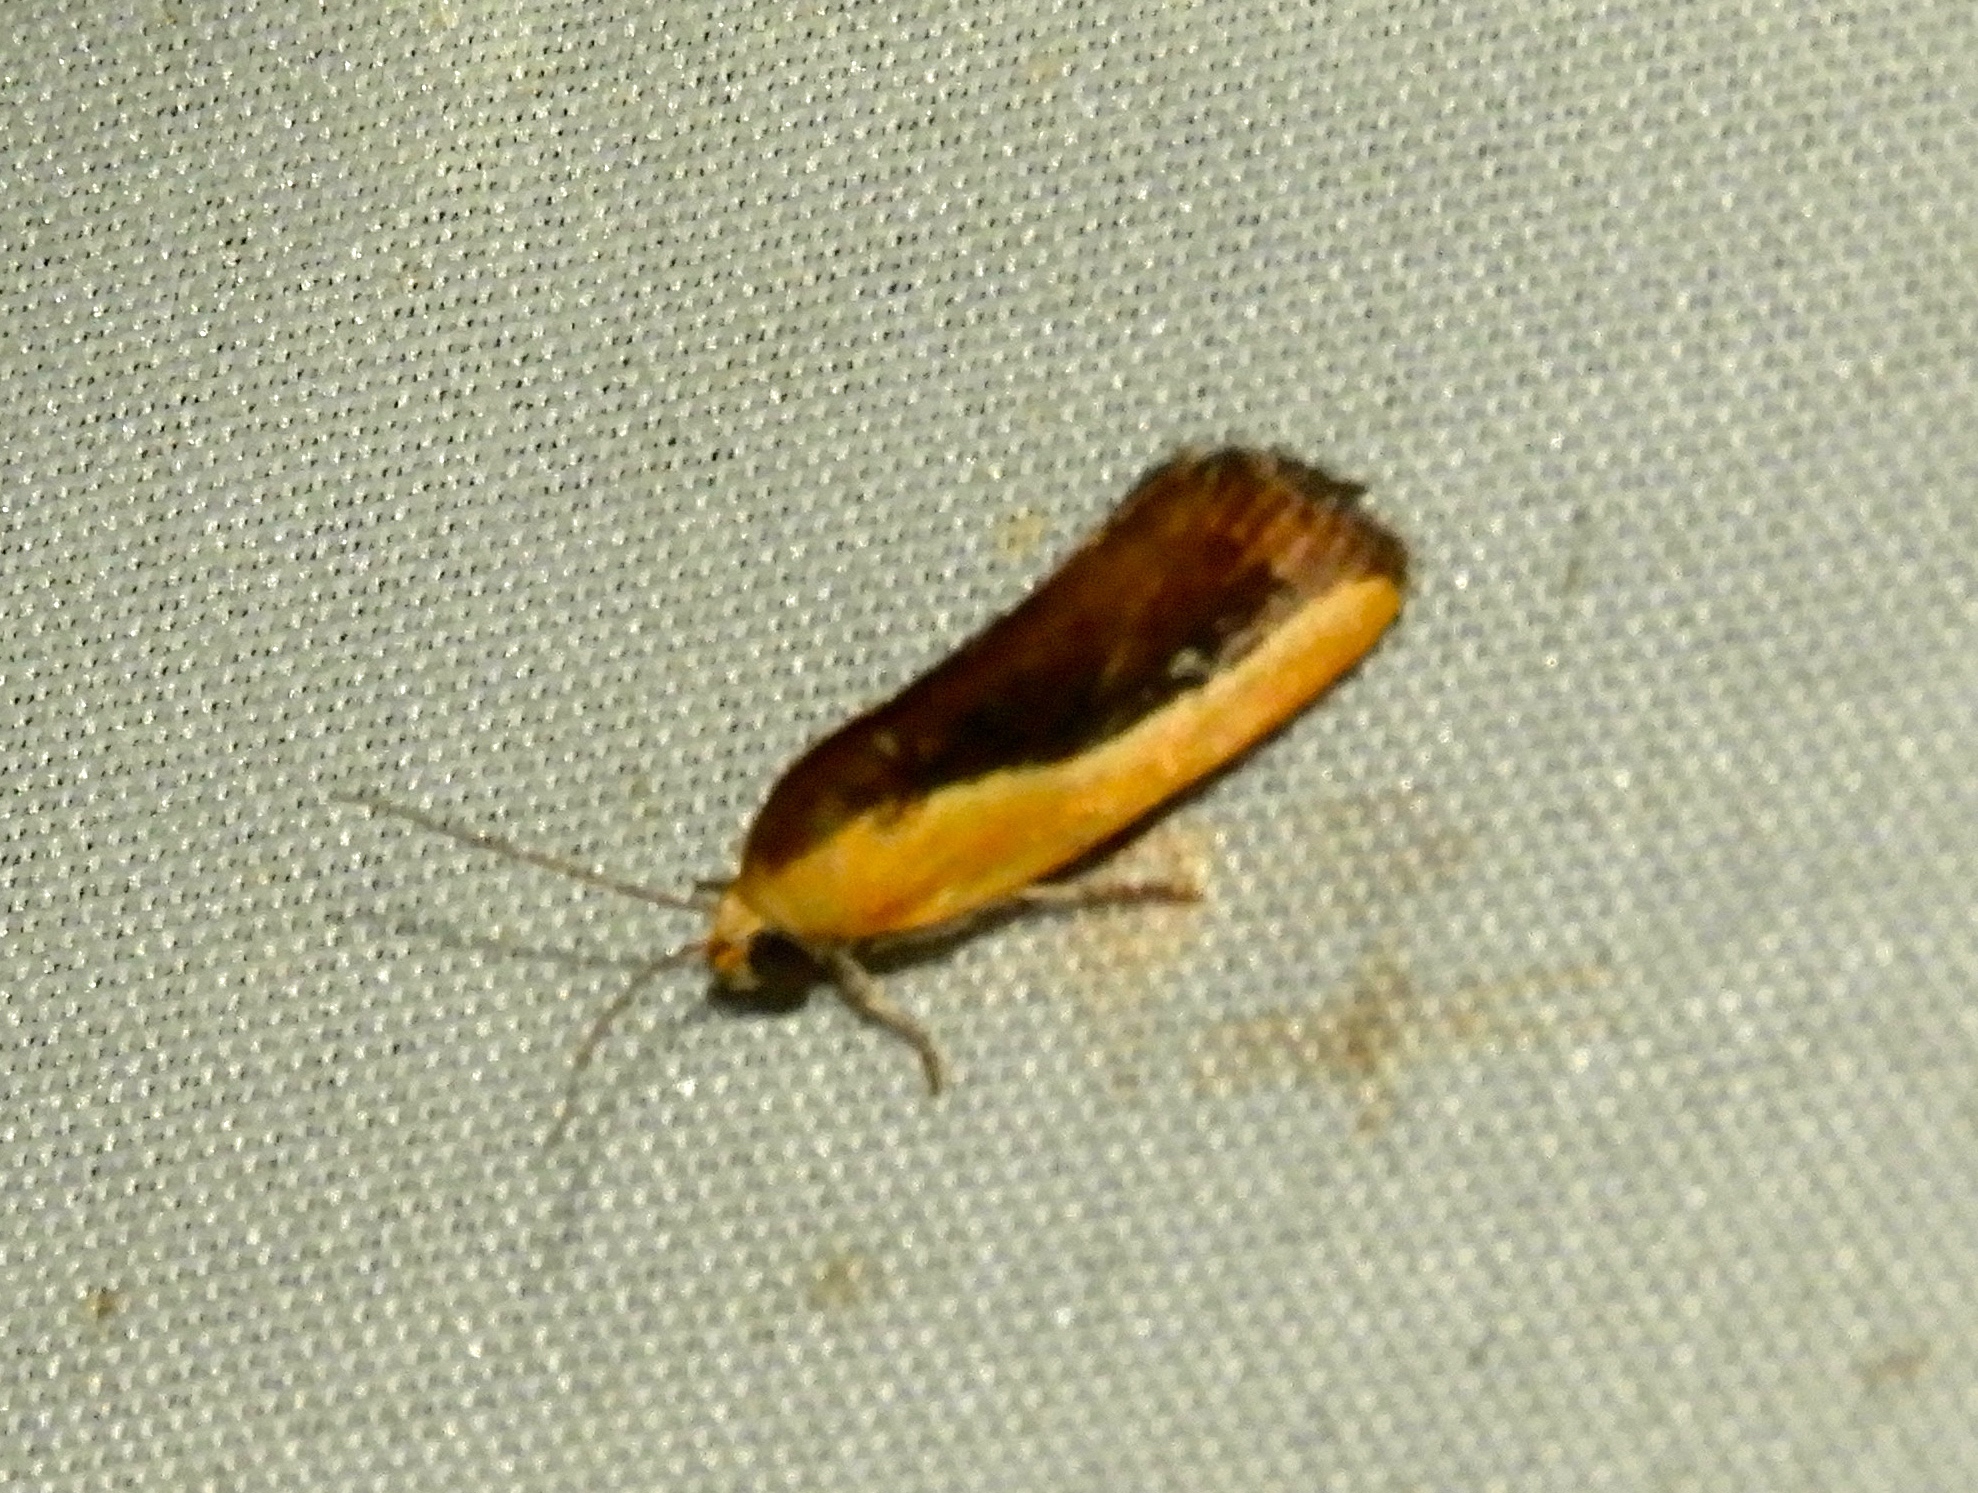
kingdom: Animalia
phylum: Arthropoda
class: Insecta
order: Lepidoptera
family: Noctuidae
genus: Acontia
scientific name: Acontia exigua
